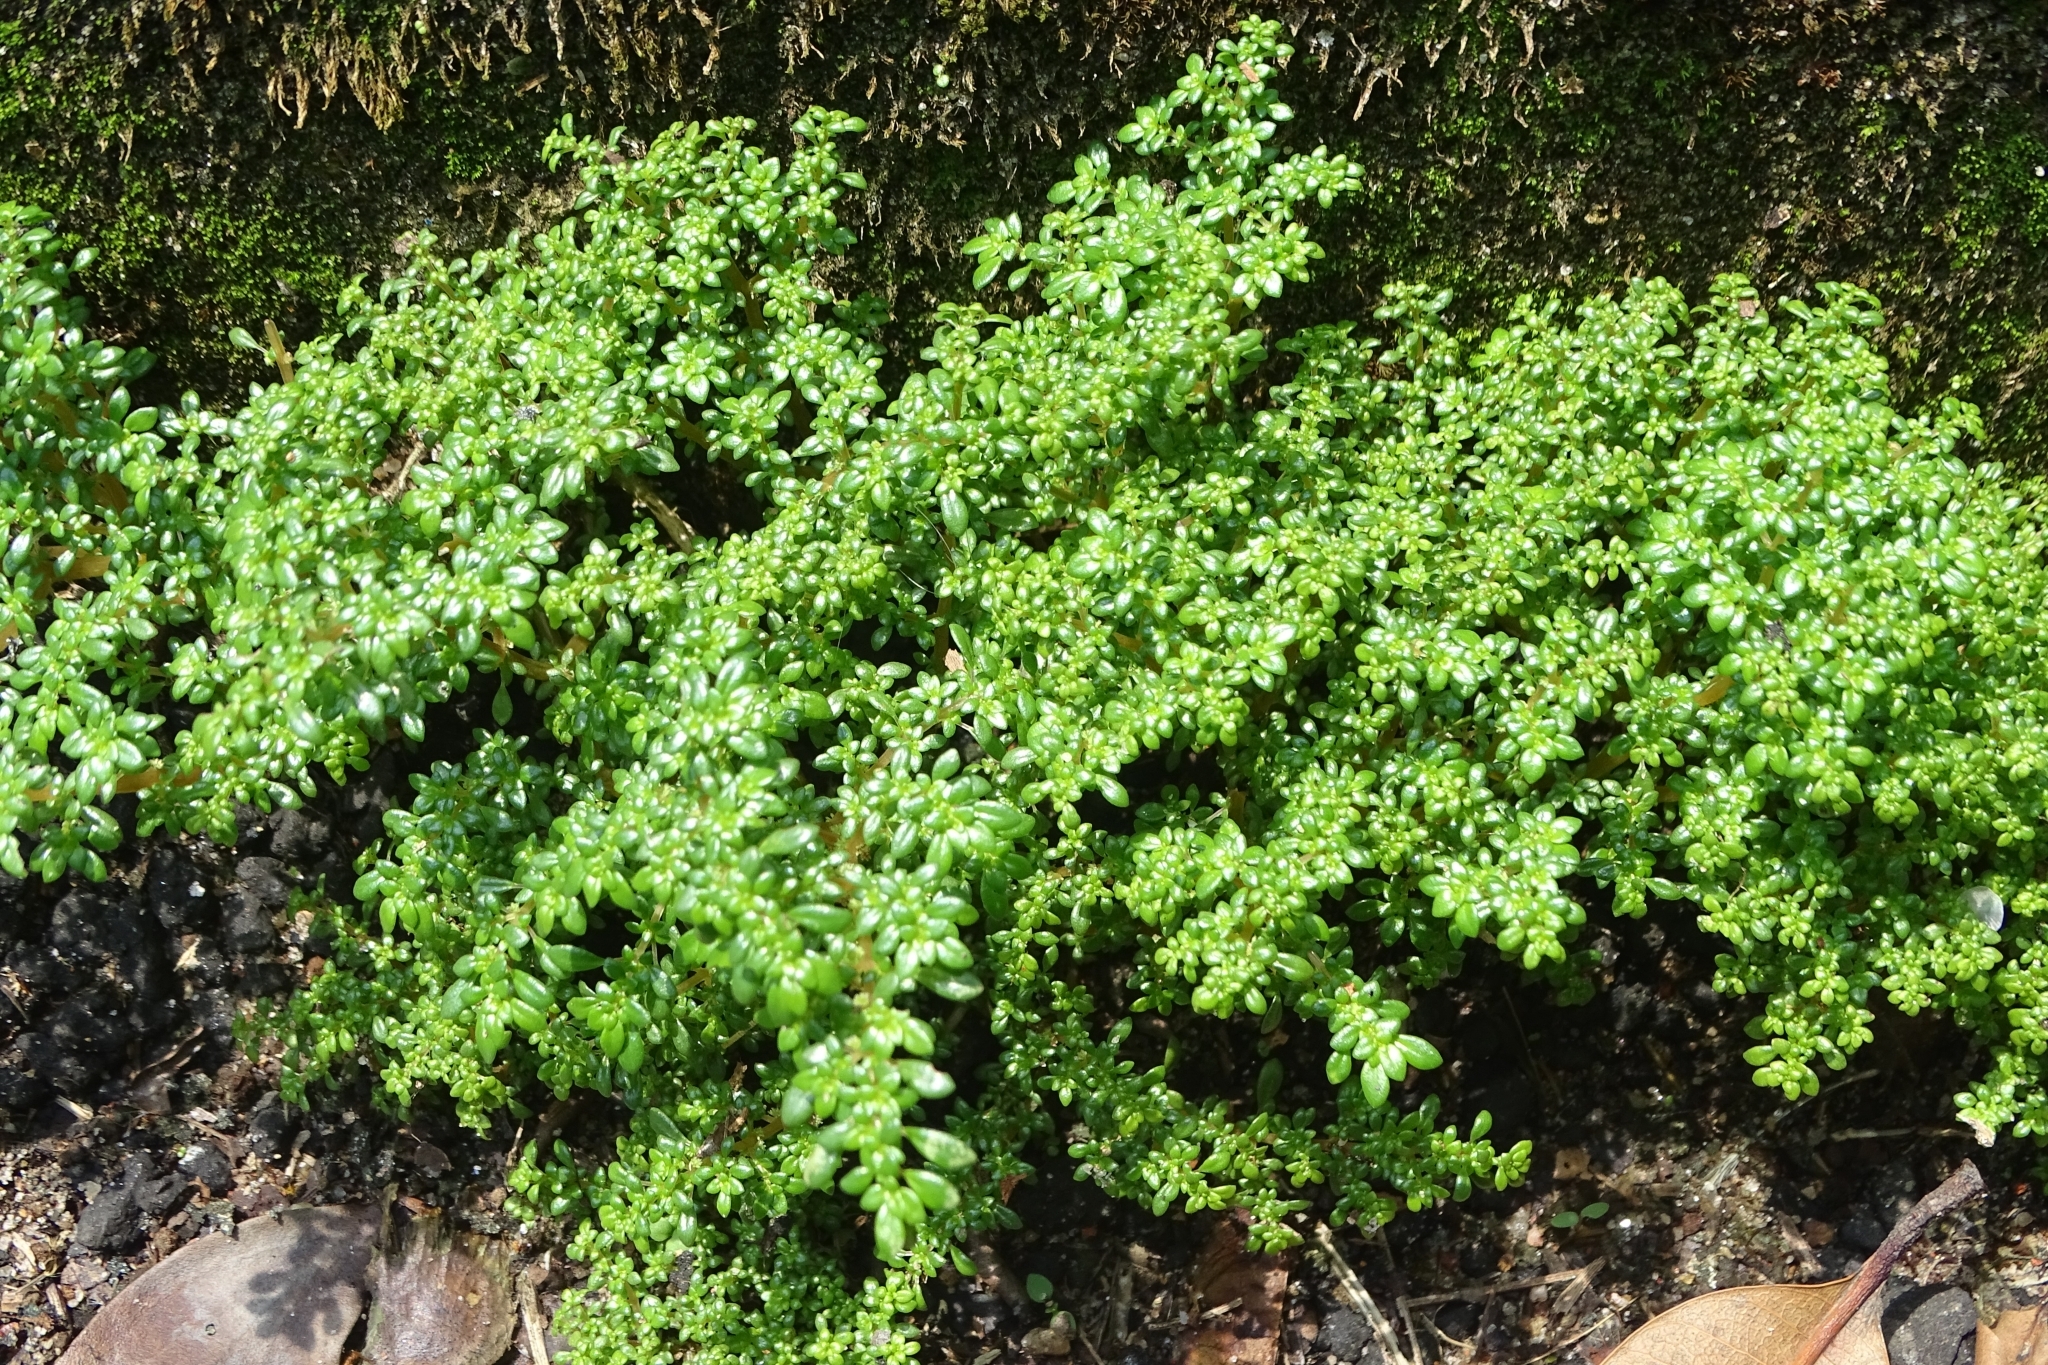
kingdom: Plantae
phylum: Tracheophyta
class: Magnoliopsida
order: Rosales
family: Urticaceae
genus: Pilea
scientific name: Pilea microphylla
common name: Artillery-plant
